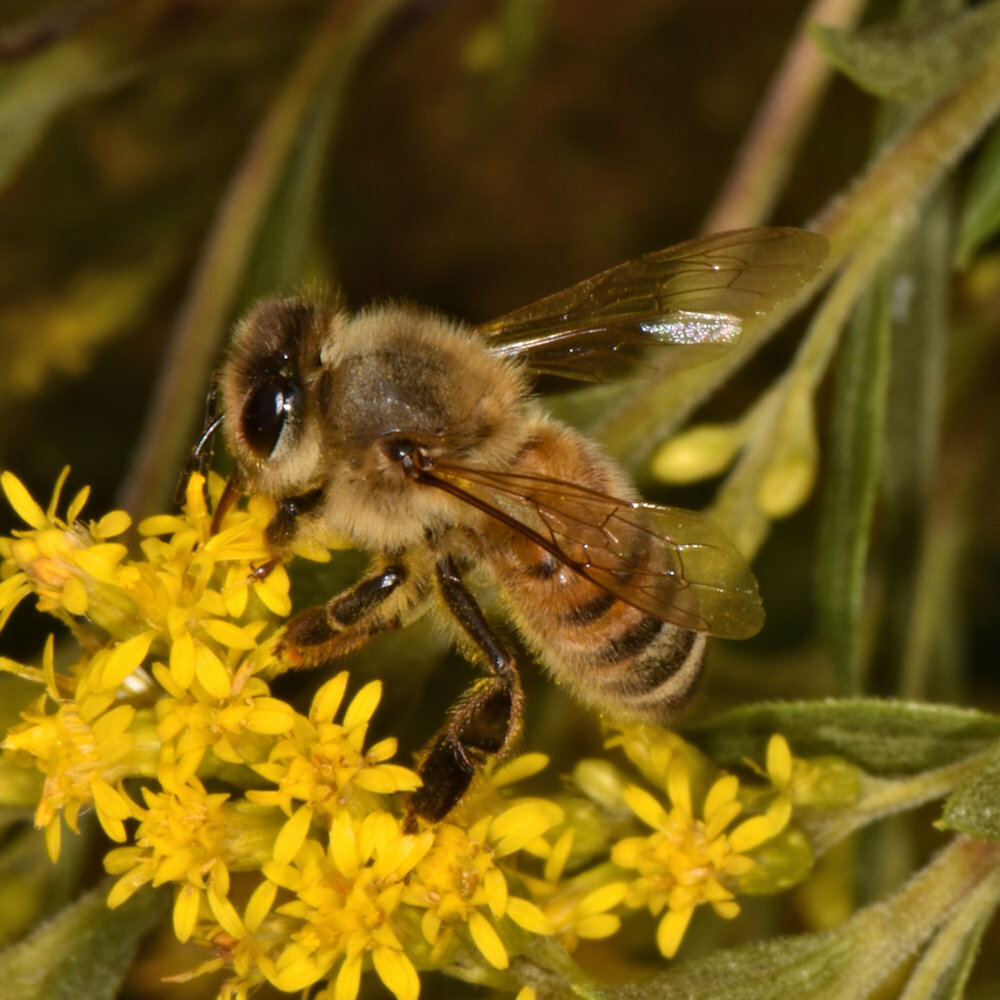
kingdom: Animalia
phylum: Arthropoda
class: Insecta
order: Hymenoptera
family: Apidae
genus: Apis
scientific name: Apis mellifera
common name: Honey bee
